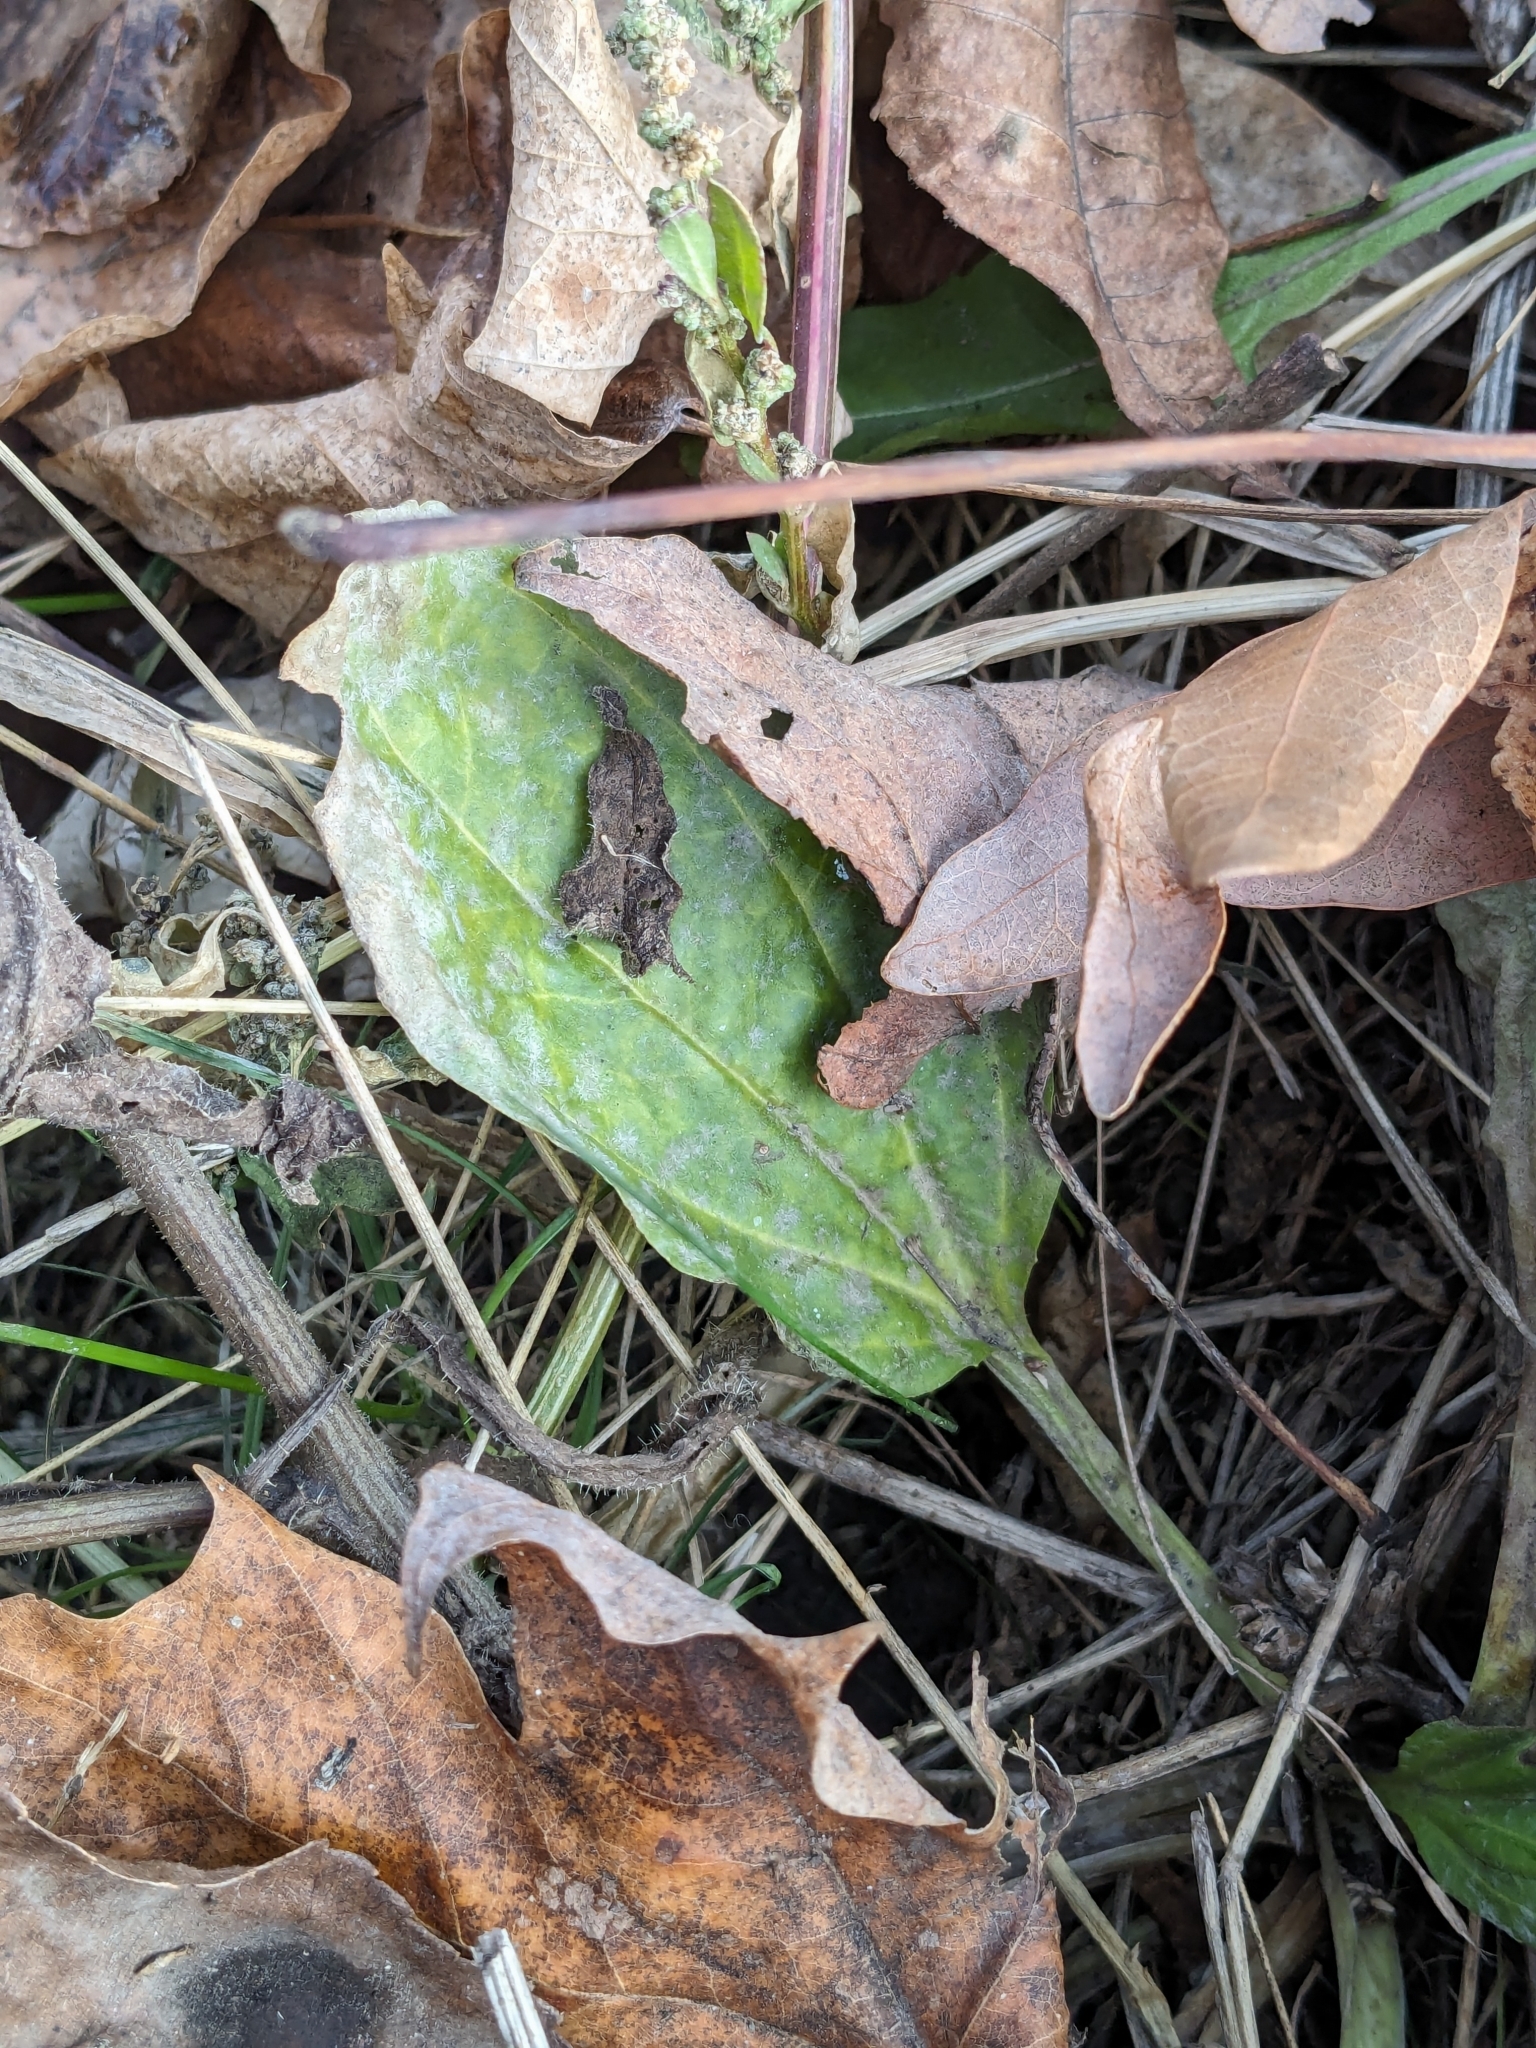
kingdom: Plantae
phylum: Tracheophyta
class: Magnoliopsida
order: Lamiales
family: Plantaginaceae
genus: Plantago
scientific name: Plantago major
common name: Common plantain
